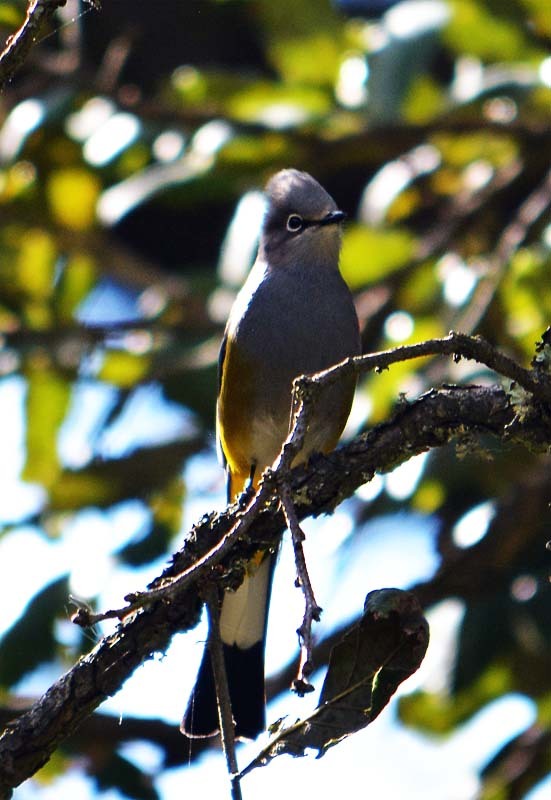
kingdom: Animalia
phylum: Chordata
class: Aves
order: Passeriformes
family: Ptilogonatidae
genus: Ptilogonys
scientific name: Ptilogonys cinereus
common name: Gray silky-flycatcher
